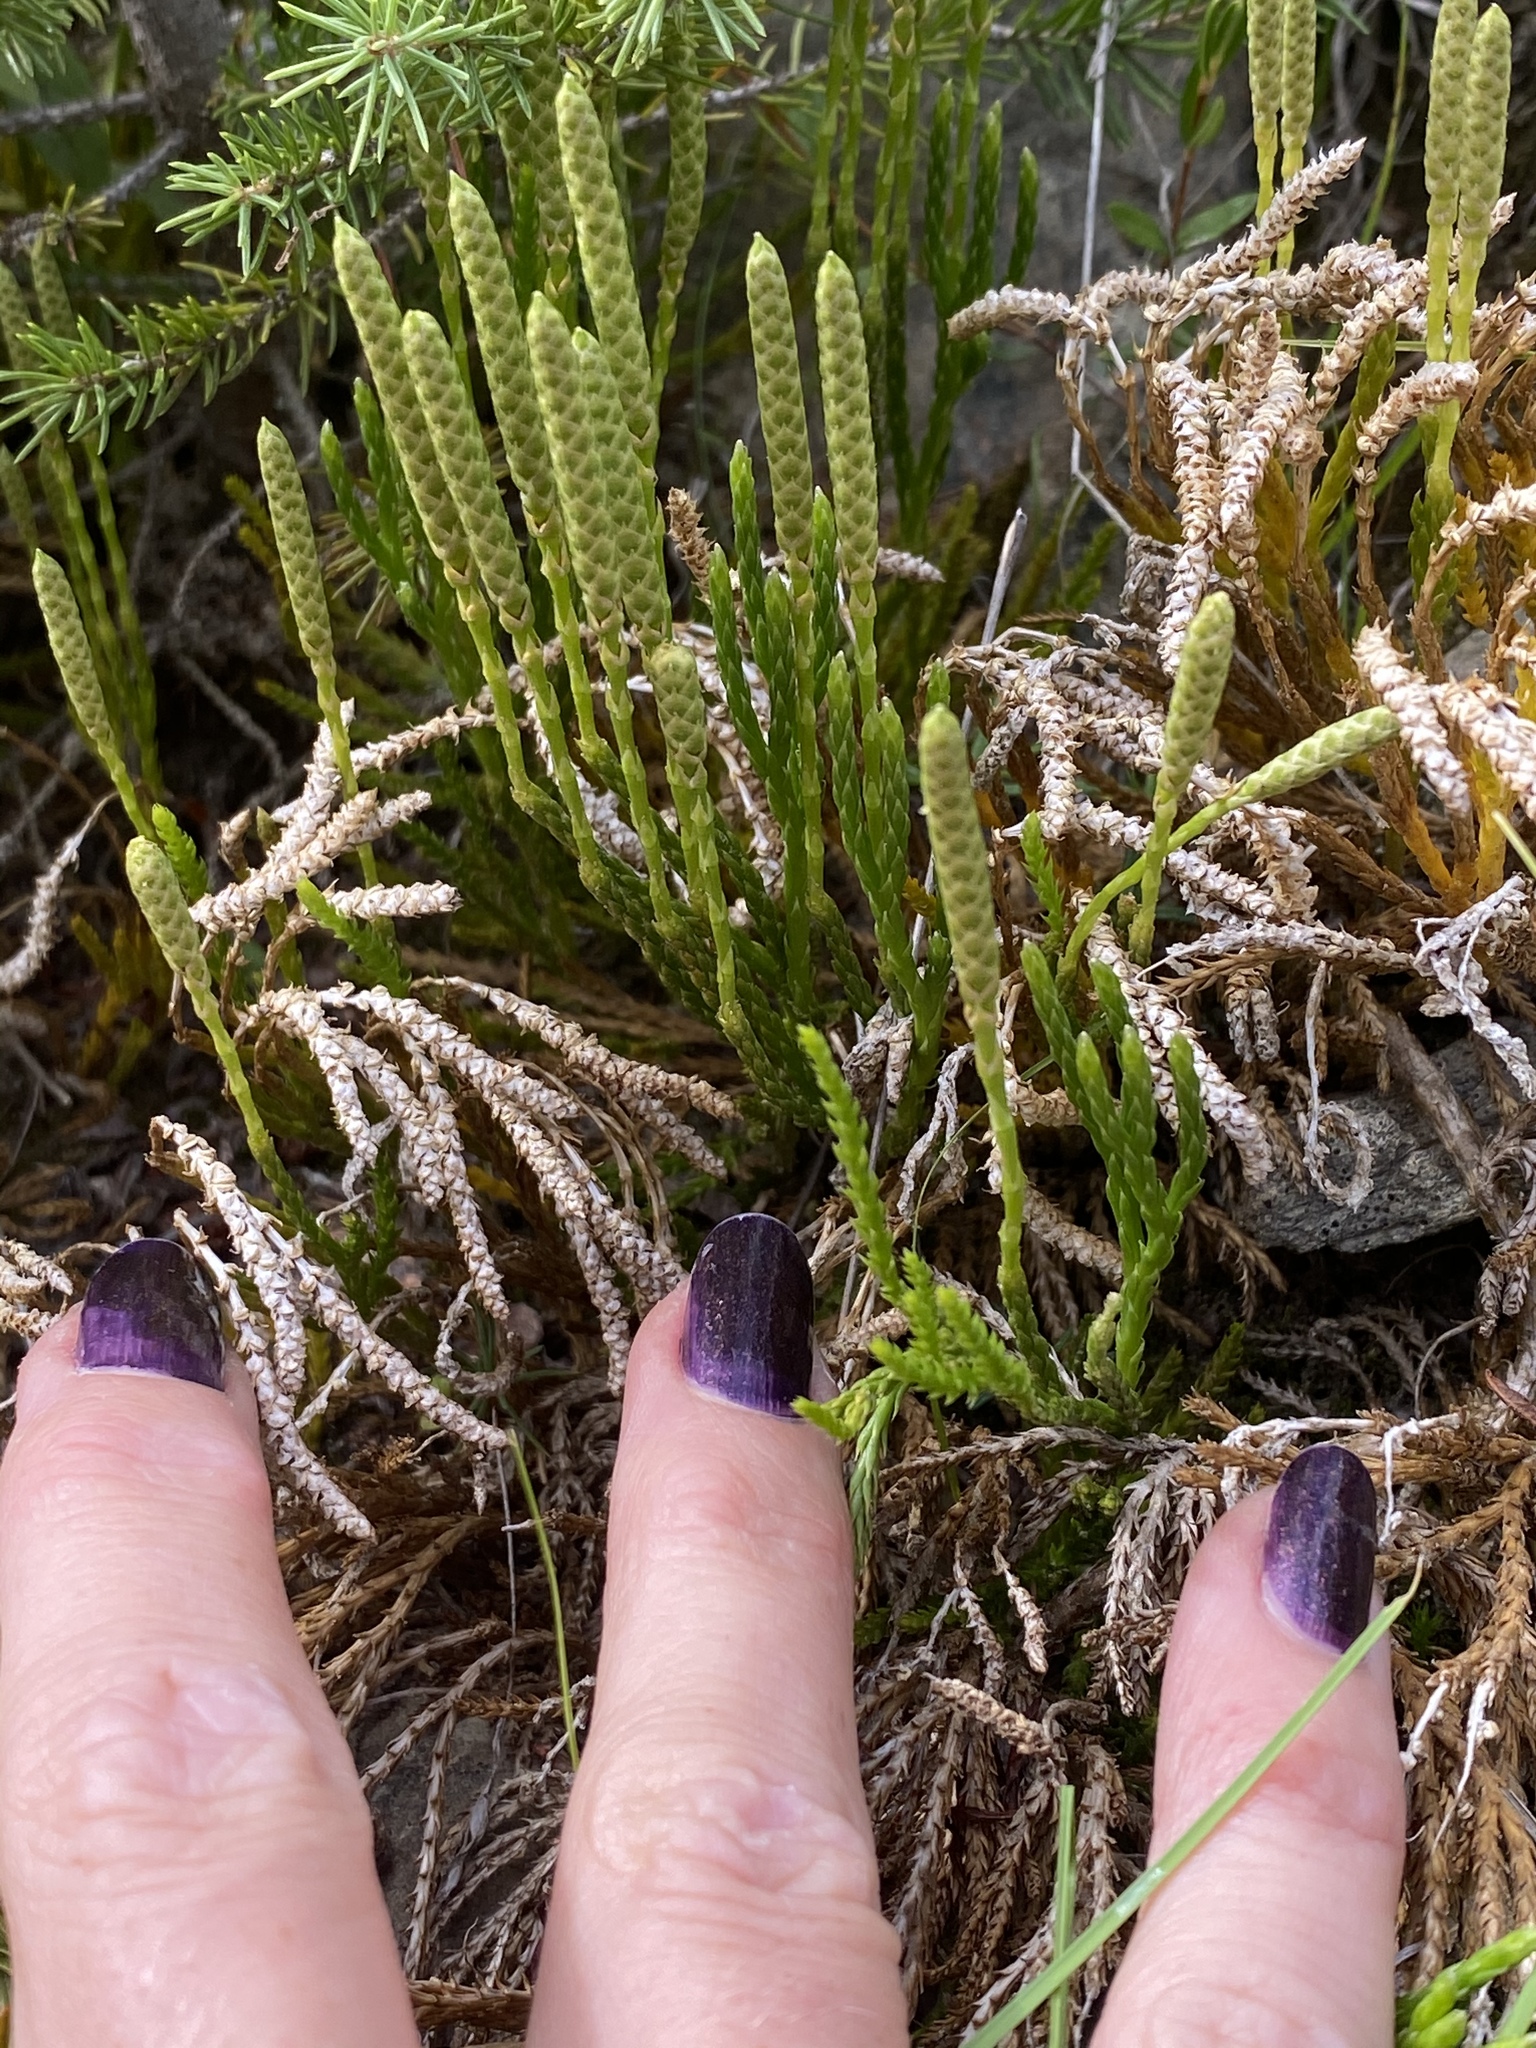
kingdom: Plantae
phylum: Tracheophyta
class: Lycopodiopsida
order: Lycopodiales
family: Lycopodiaceae
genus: Diphasiastrum
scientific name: Diphasiastrum complanatum
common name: Northern running-pine
